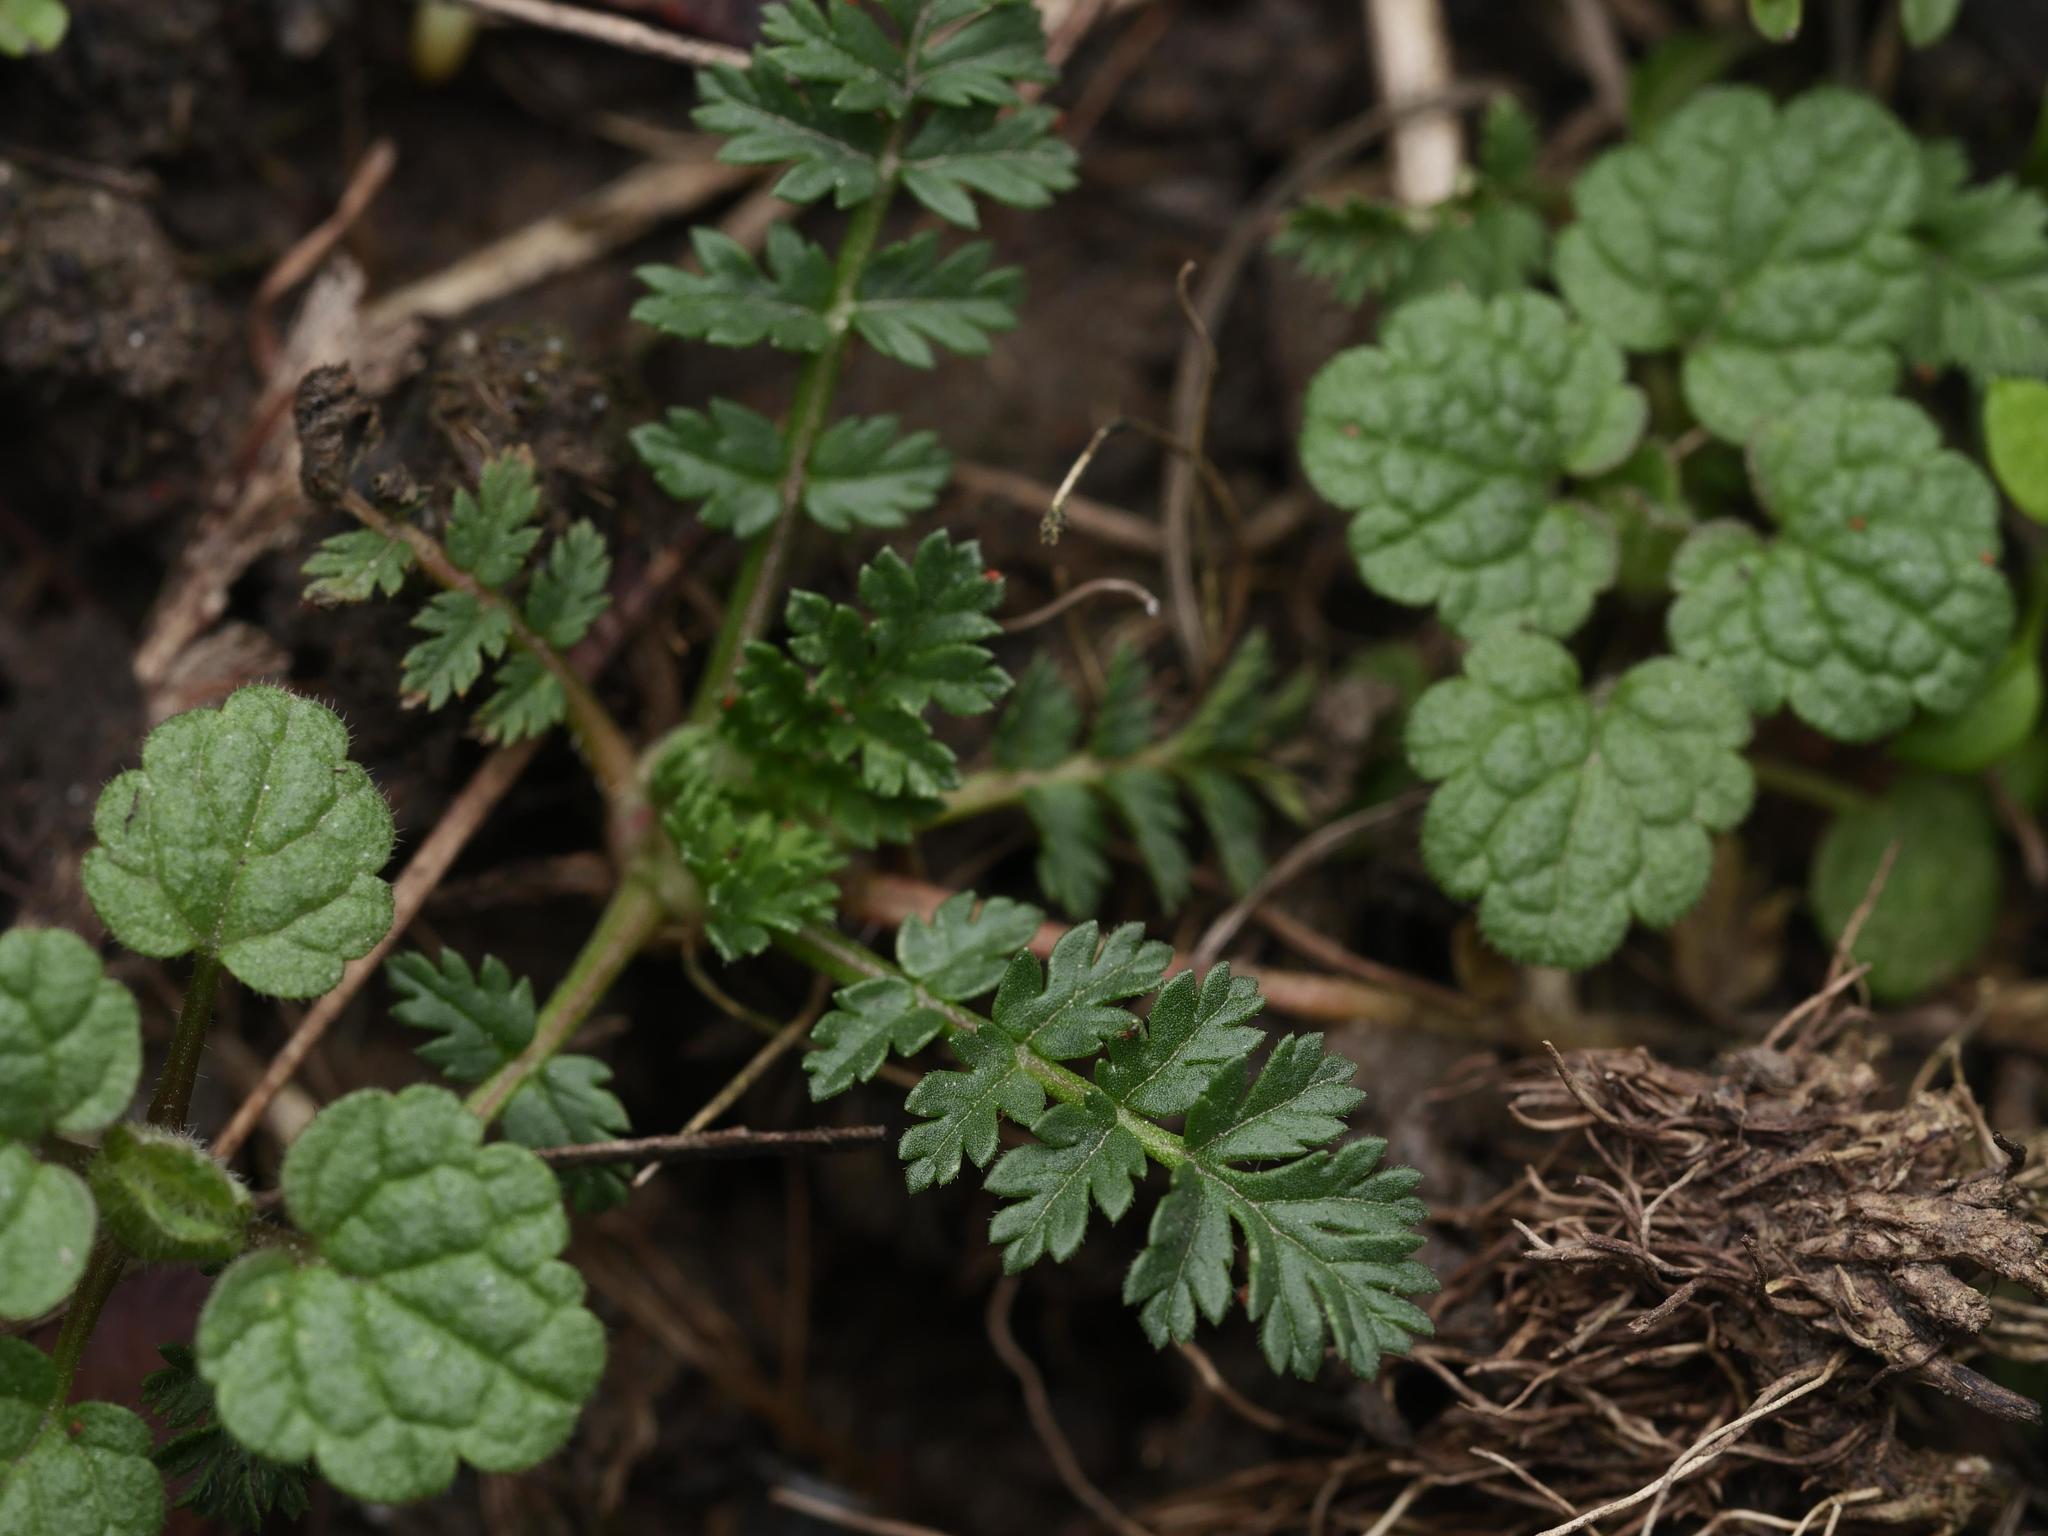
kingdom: Plantae
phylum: Tracheophyta
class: Magnoliopsida
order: Geraniales
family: Geraniaceae
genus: Erodium
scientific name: Erodium cicutarium
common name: Common stork's-bill
